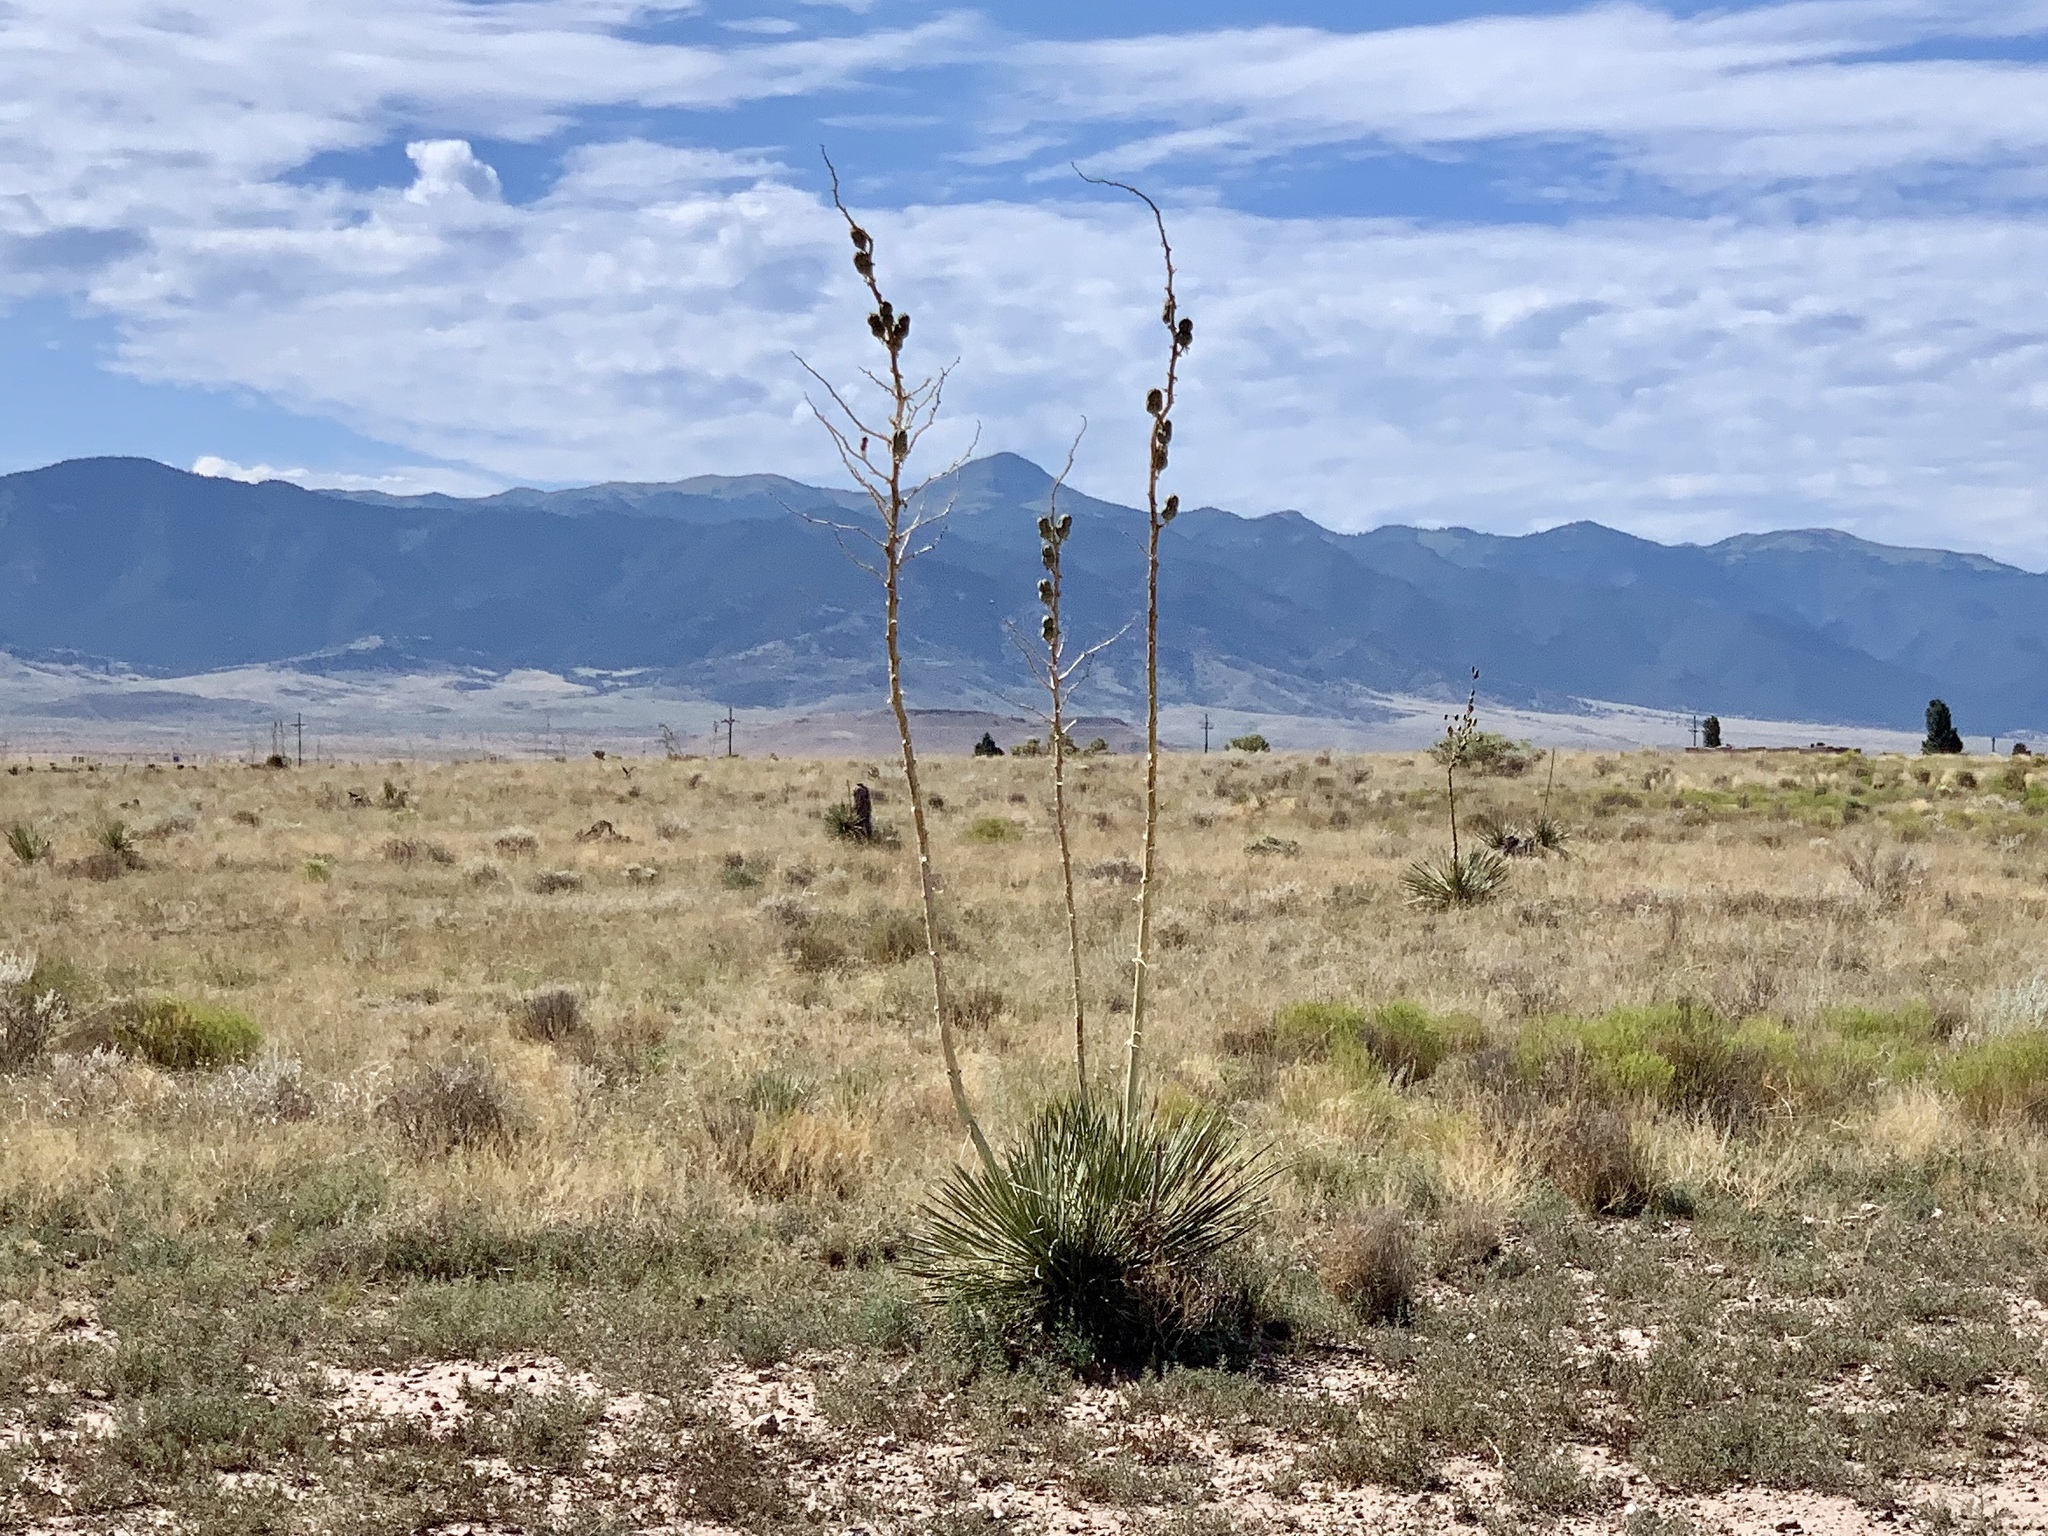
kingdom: Plantae
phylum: Tracheophyta
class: Liliopsida
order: Asparagales
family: Asparagaceae
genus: Yucca
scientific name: Yucca elata
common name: Palmella
